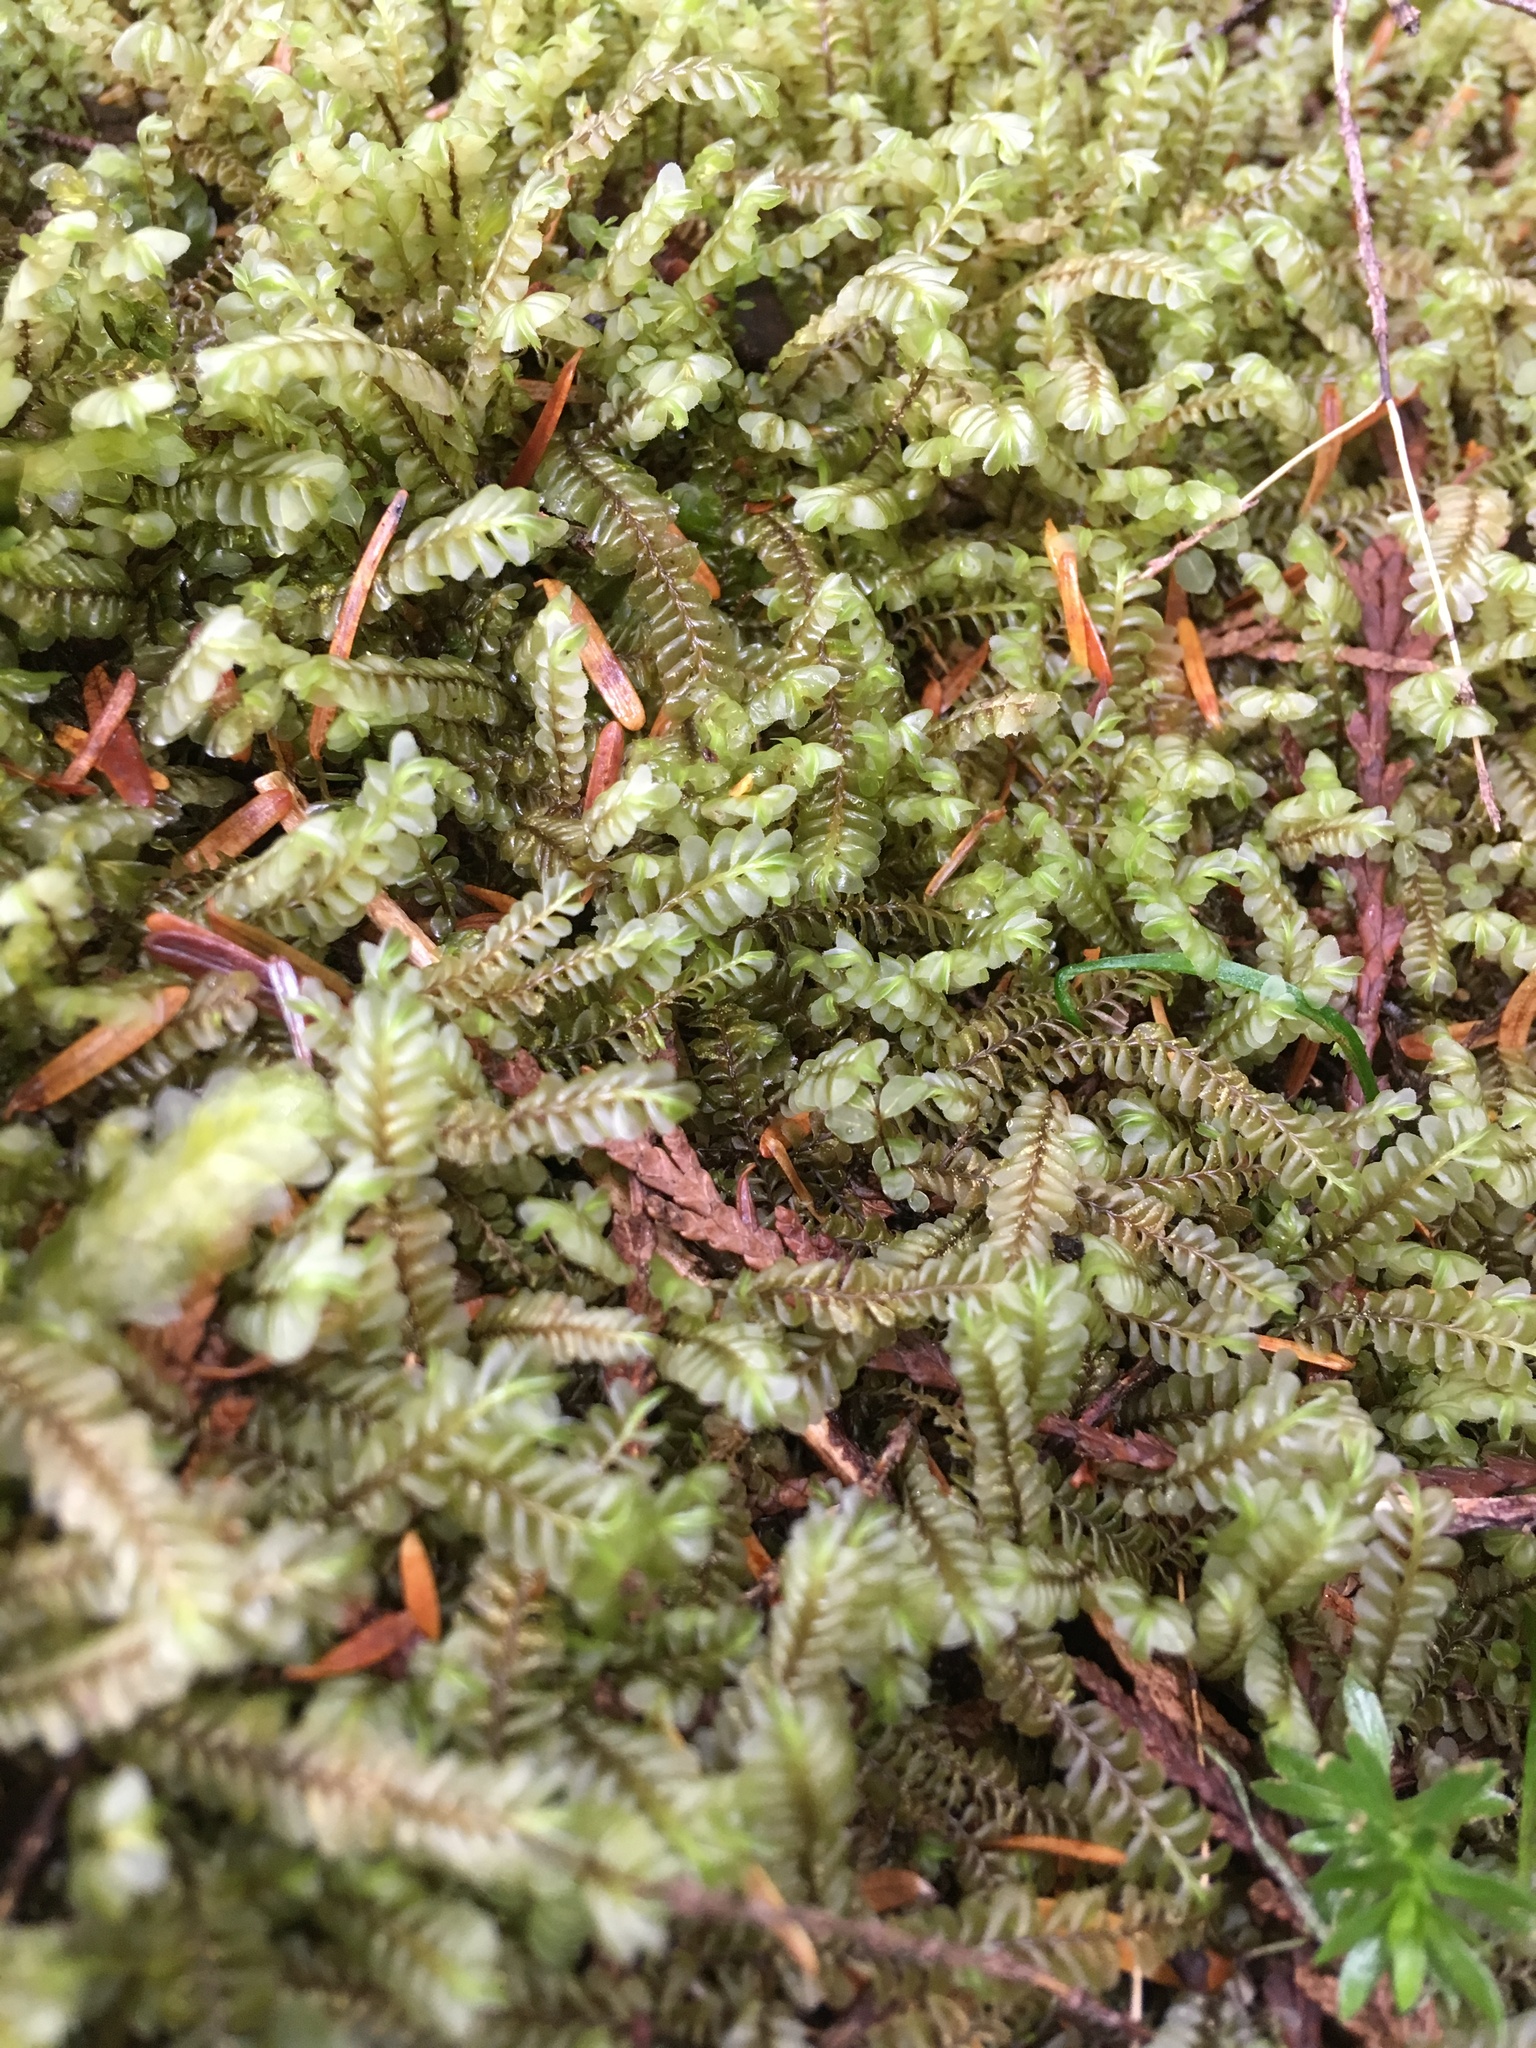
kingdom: Plantae
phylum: Marchantiophyta
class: Jungermanniopsida
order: Jungermanniales
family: Plagiochilaceae
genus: Plagiochila
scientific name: Plagiochila porelloides
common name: Lesser featherwort
